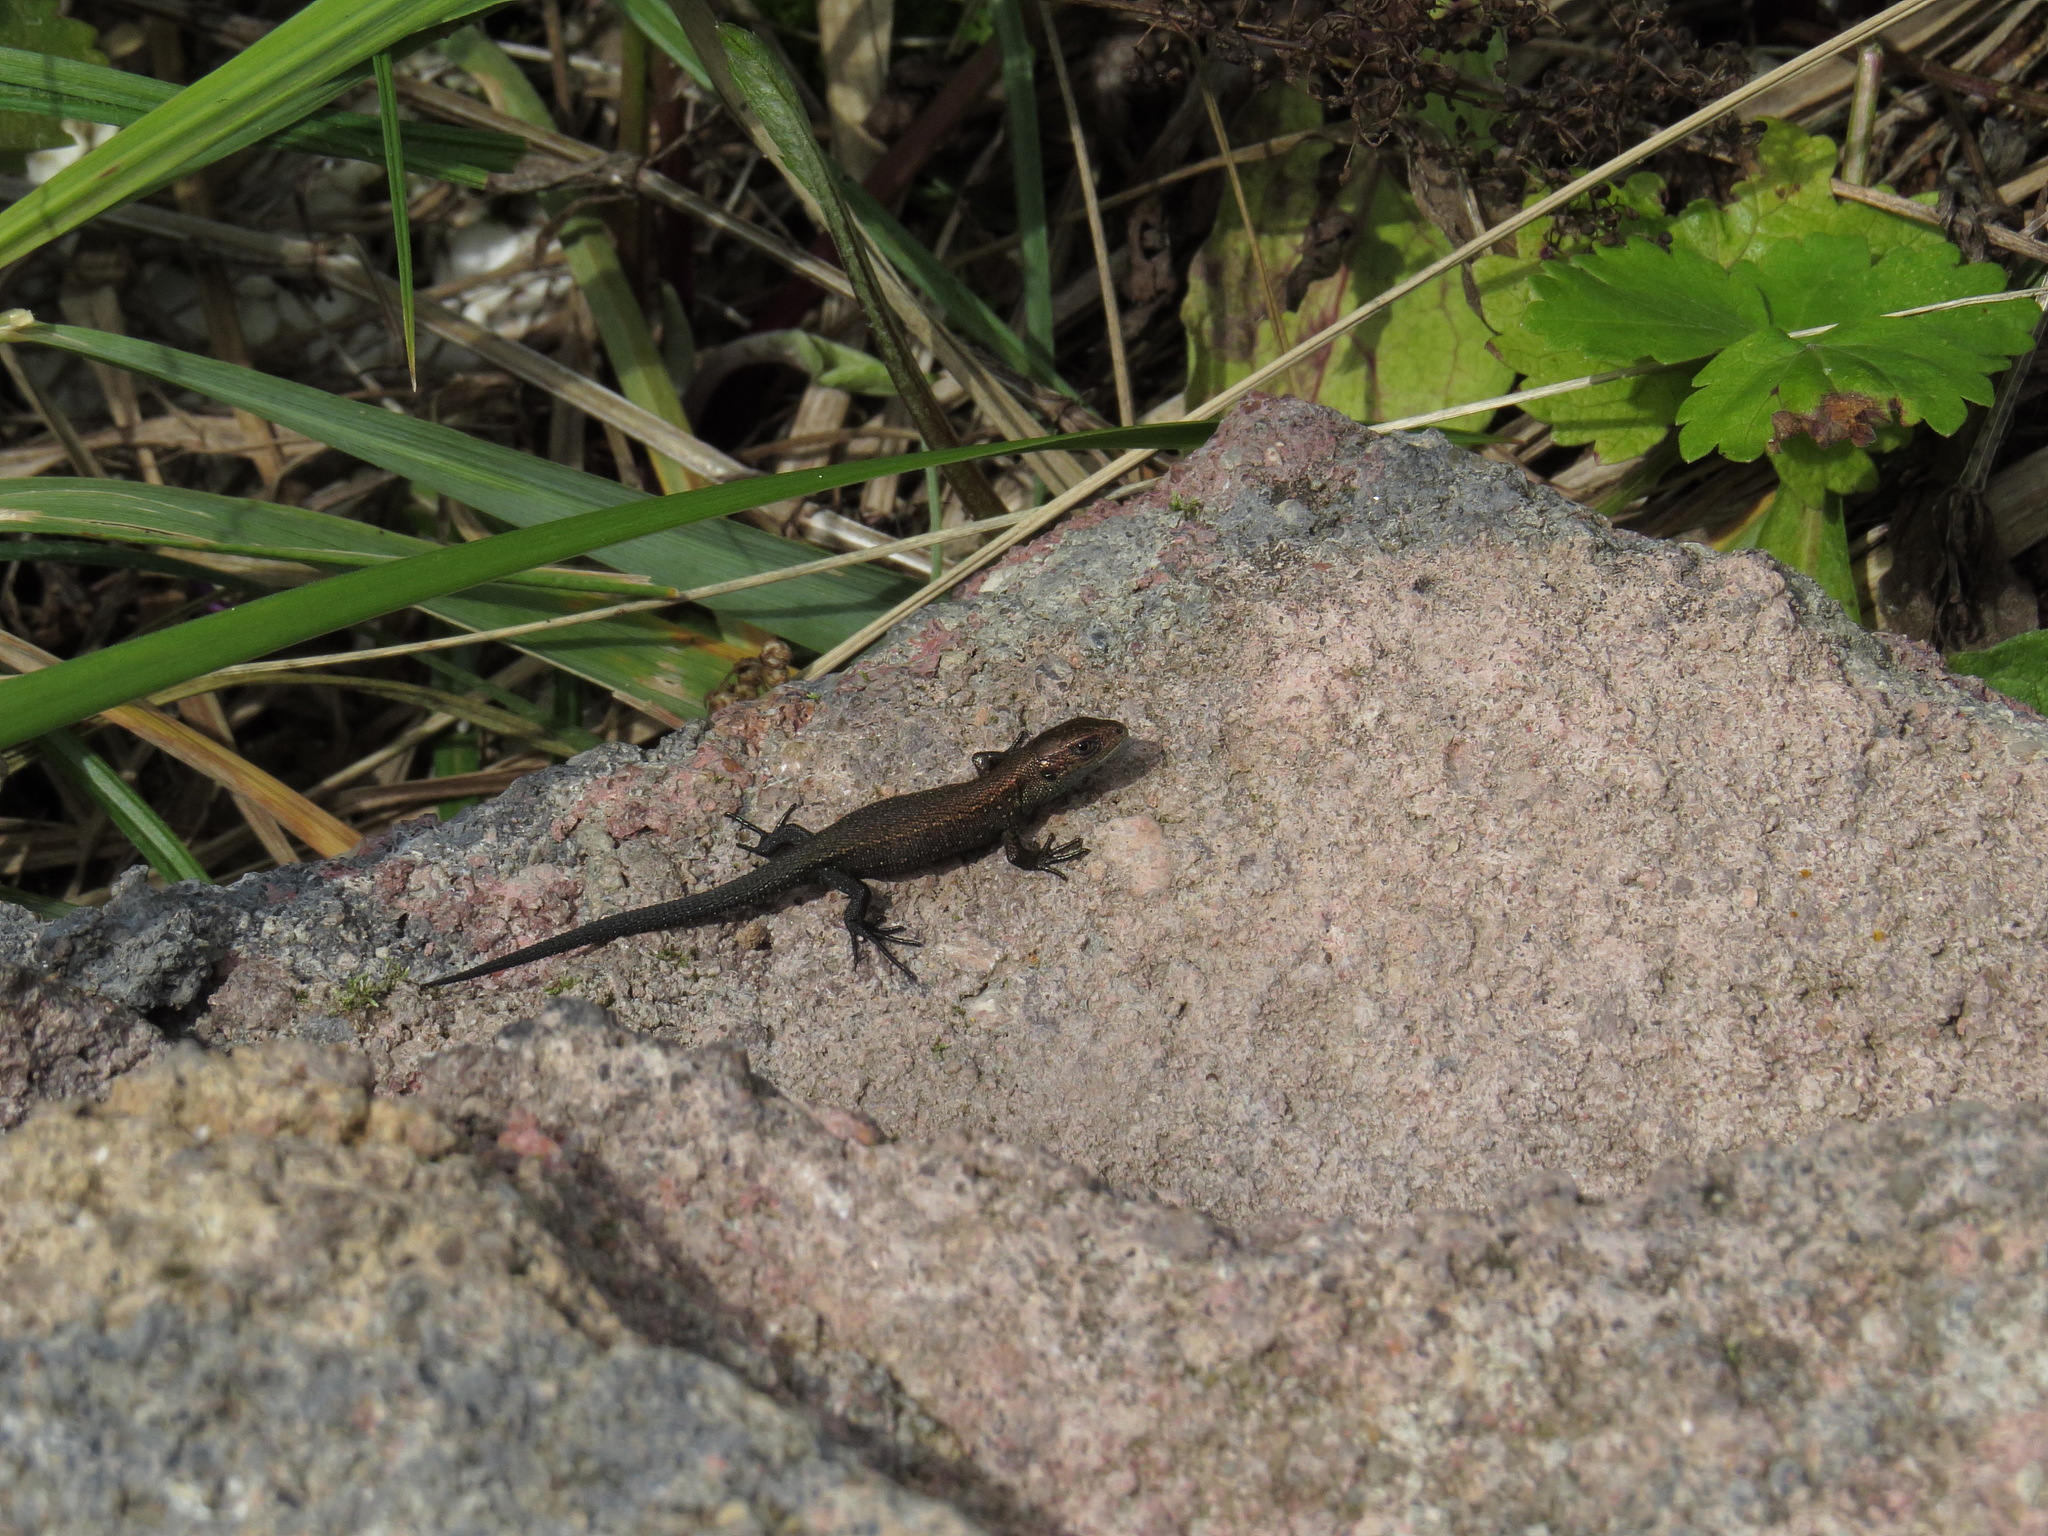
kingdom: Animalia
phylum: Chordata
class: Squamata
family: Lacertidae
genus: Zootoca
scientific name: Zootoca vivipara
